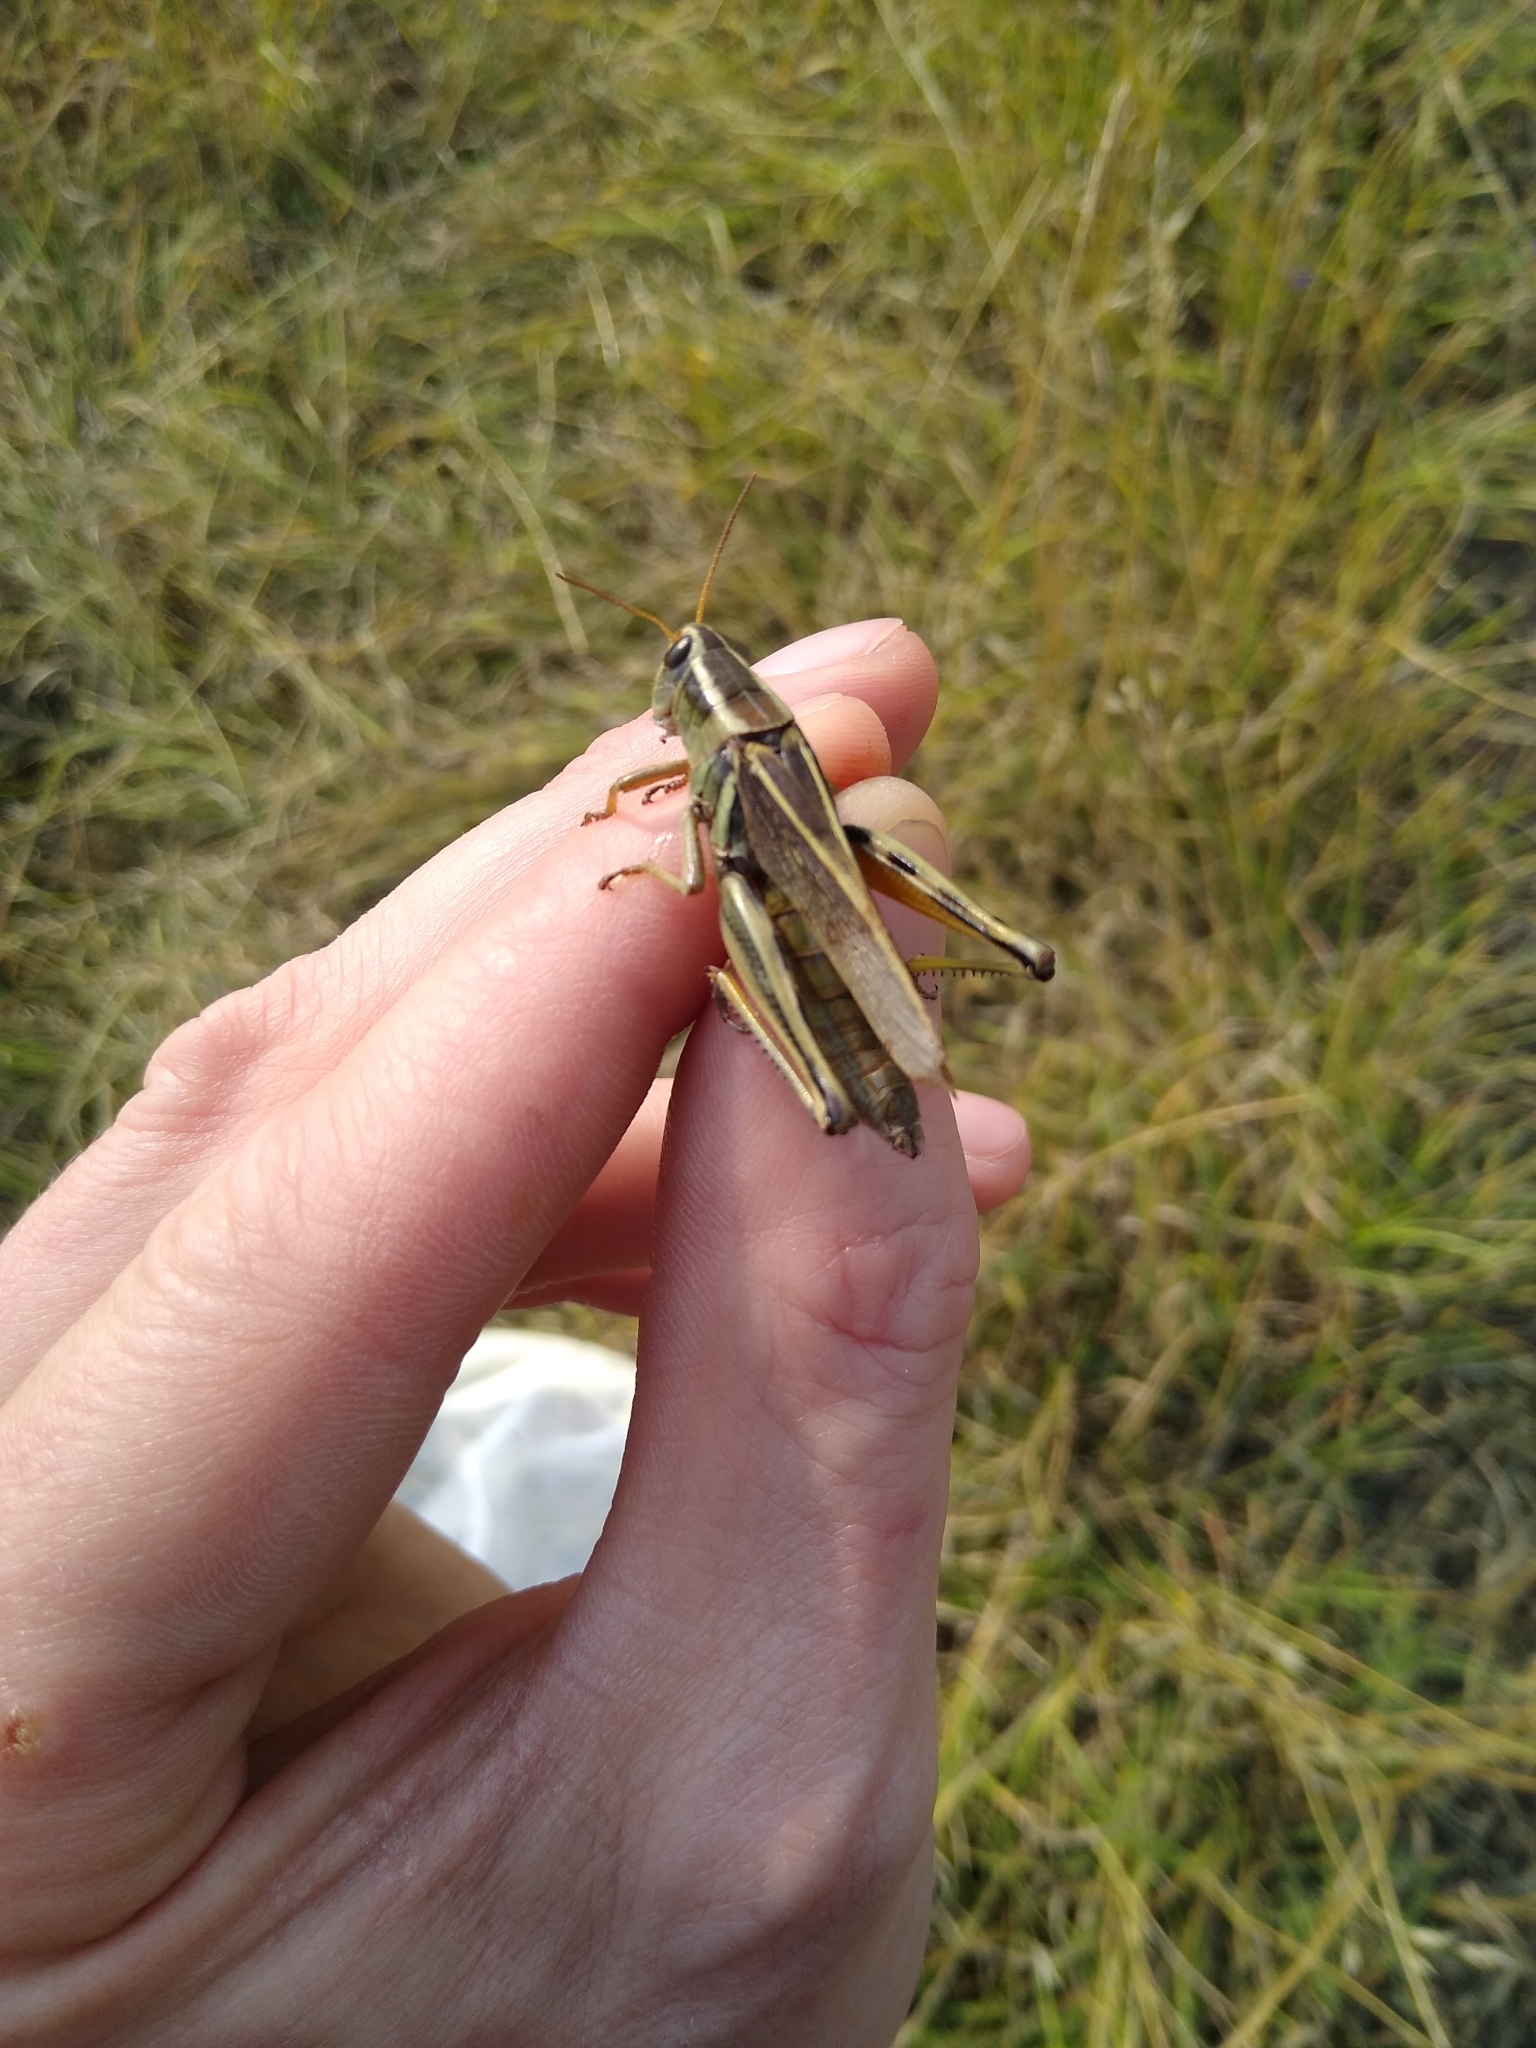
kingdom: Animalia
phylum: Arthropoda
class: Insecta
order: Orthoptera
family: Acrididae
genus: Melanoplus
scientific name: Melanoplus bivittatus
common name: Two-striped grasshopper
